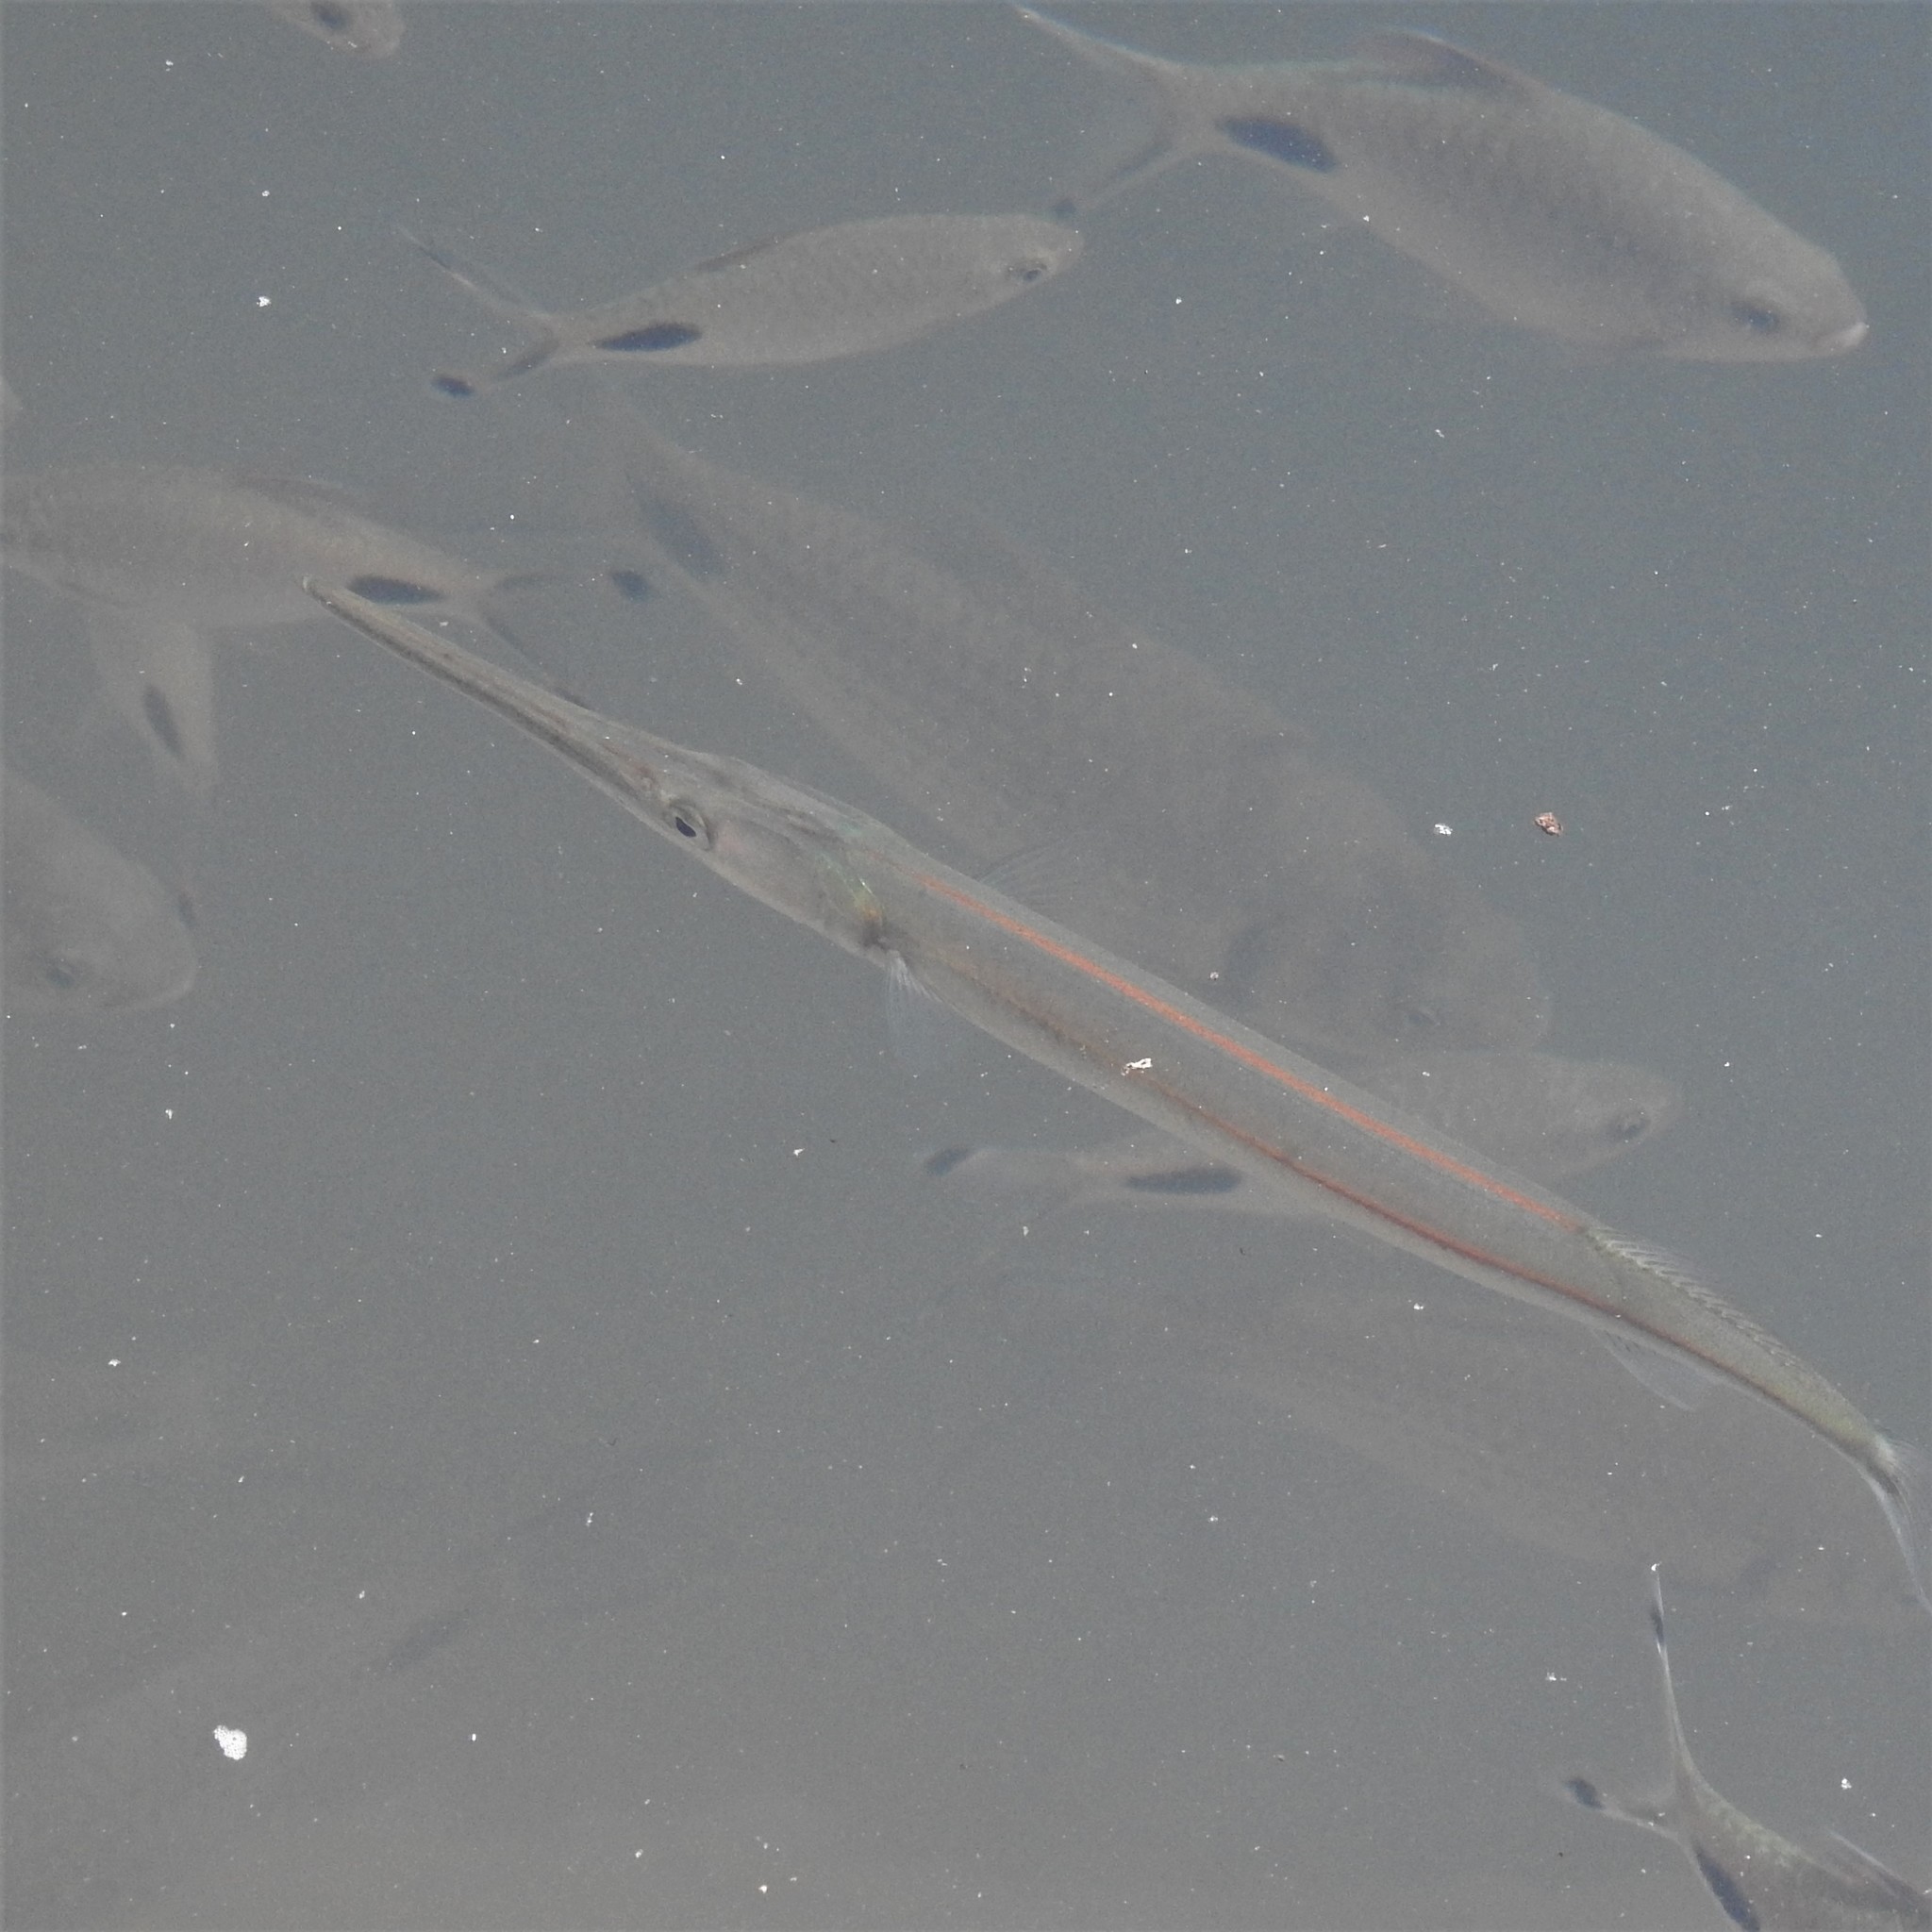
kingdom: Animalia
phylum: Chordata
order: Beloniformes
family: Belonidae
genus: Xenentodon
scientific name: Xenentodon cancila
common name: Freshwater garfish
